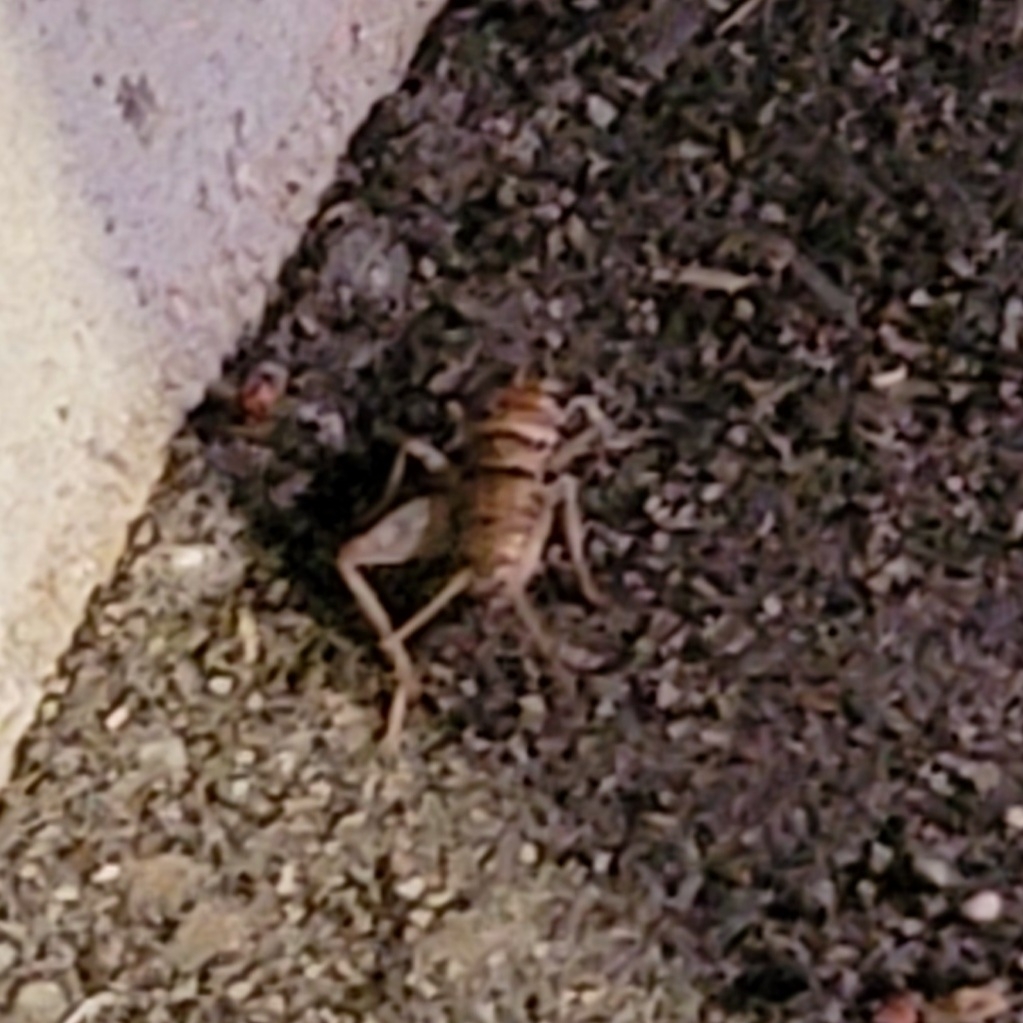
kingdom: Animalia
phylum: Arthropoda
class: Insecta
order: Orthoptera
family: Gryllidae
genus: Gryllodes
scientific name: Gryllodes sigillatus
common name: Tropical house cricket
